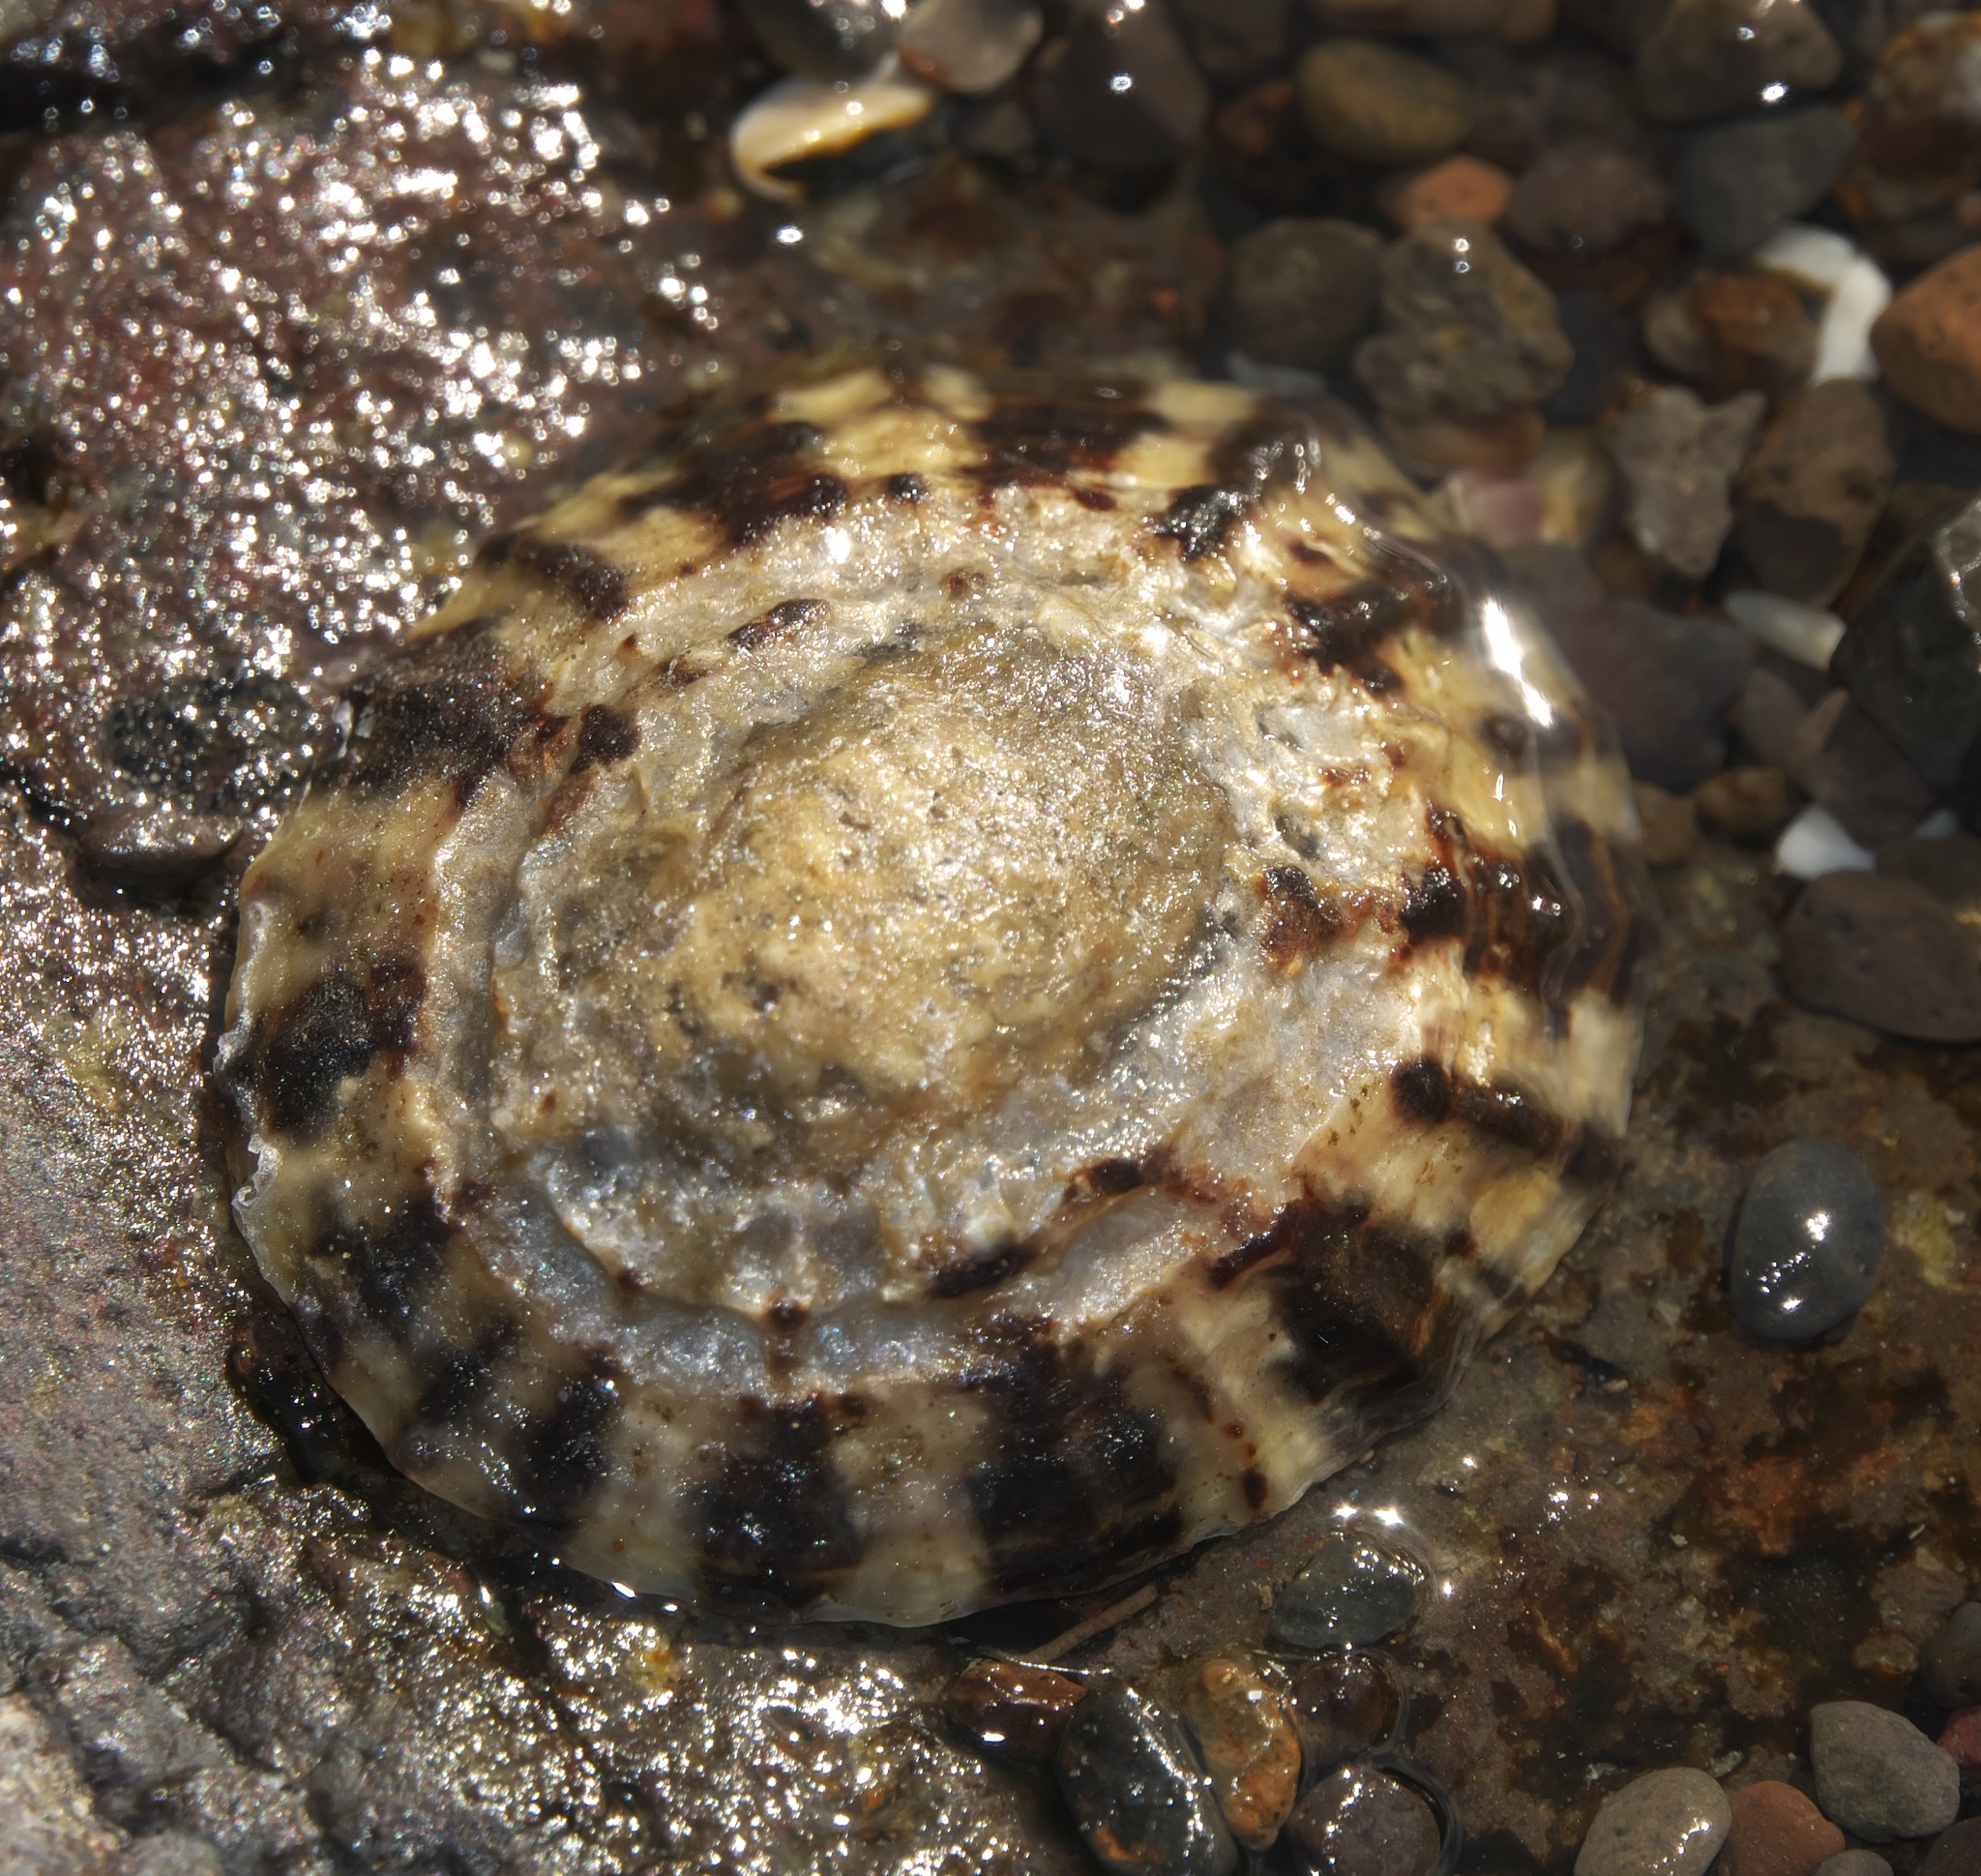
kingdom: Animalia
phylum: Mollusca
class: Gastropoda
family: Nacellidae
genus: Cellana
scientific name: Cellana radians
